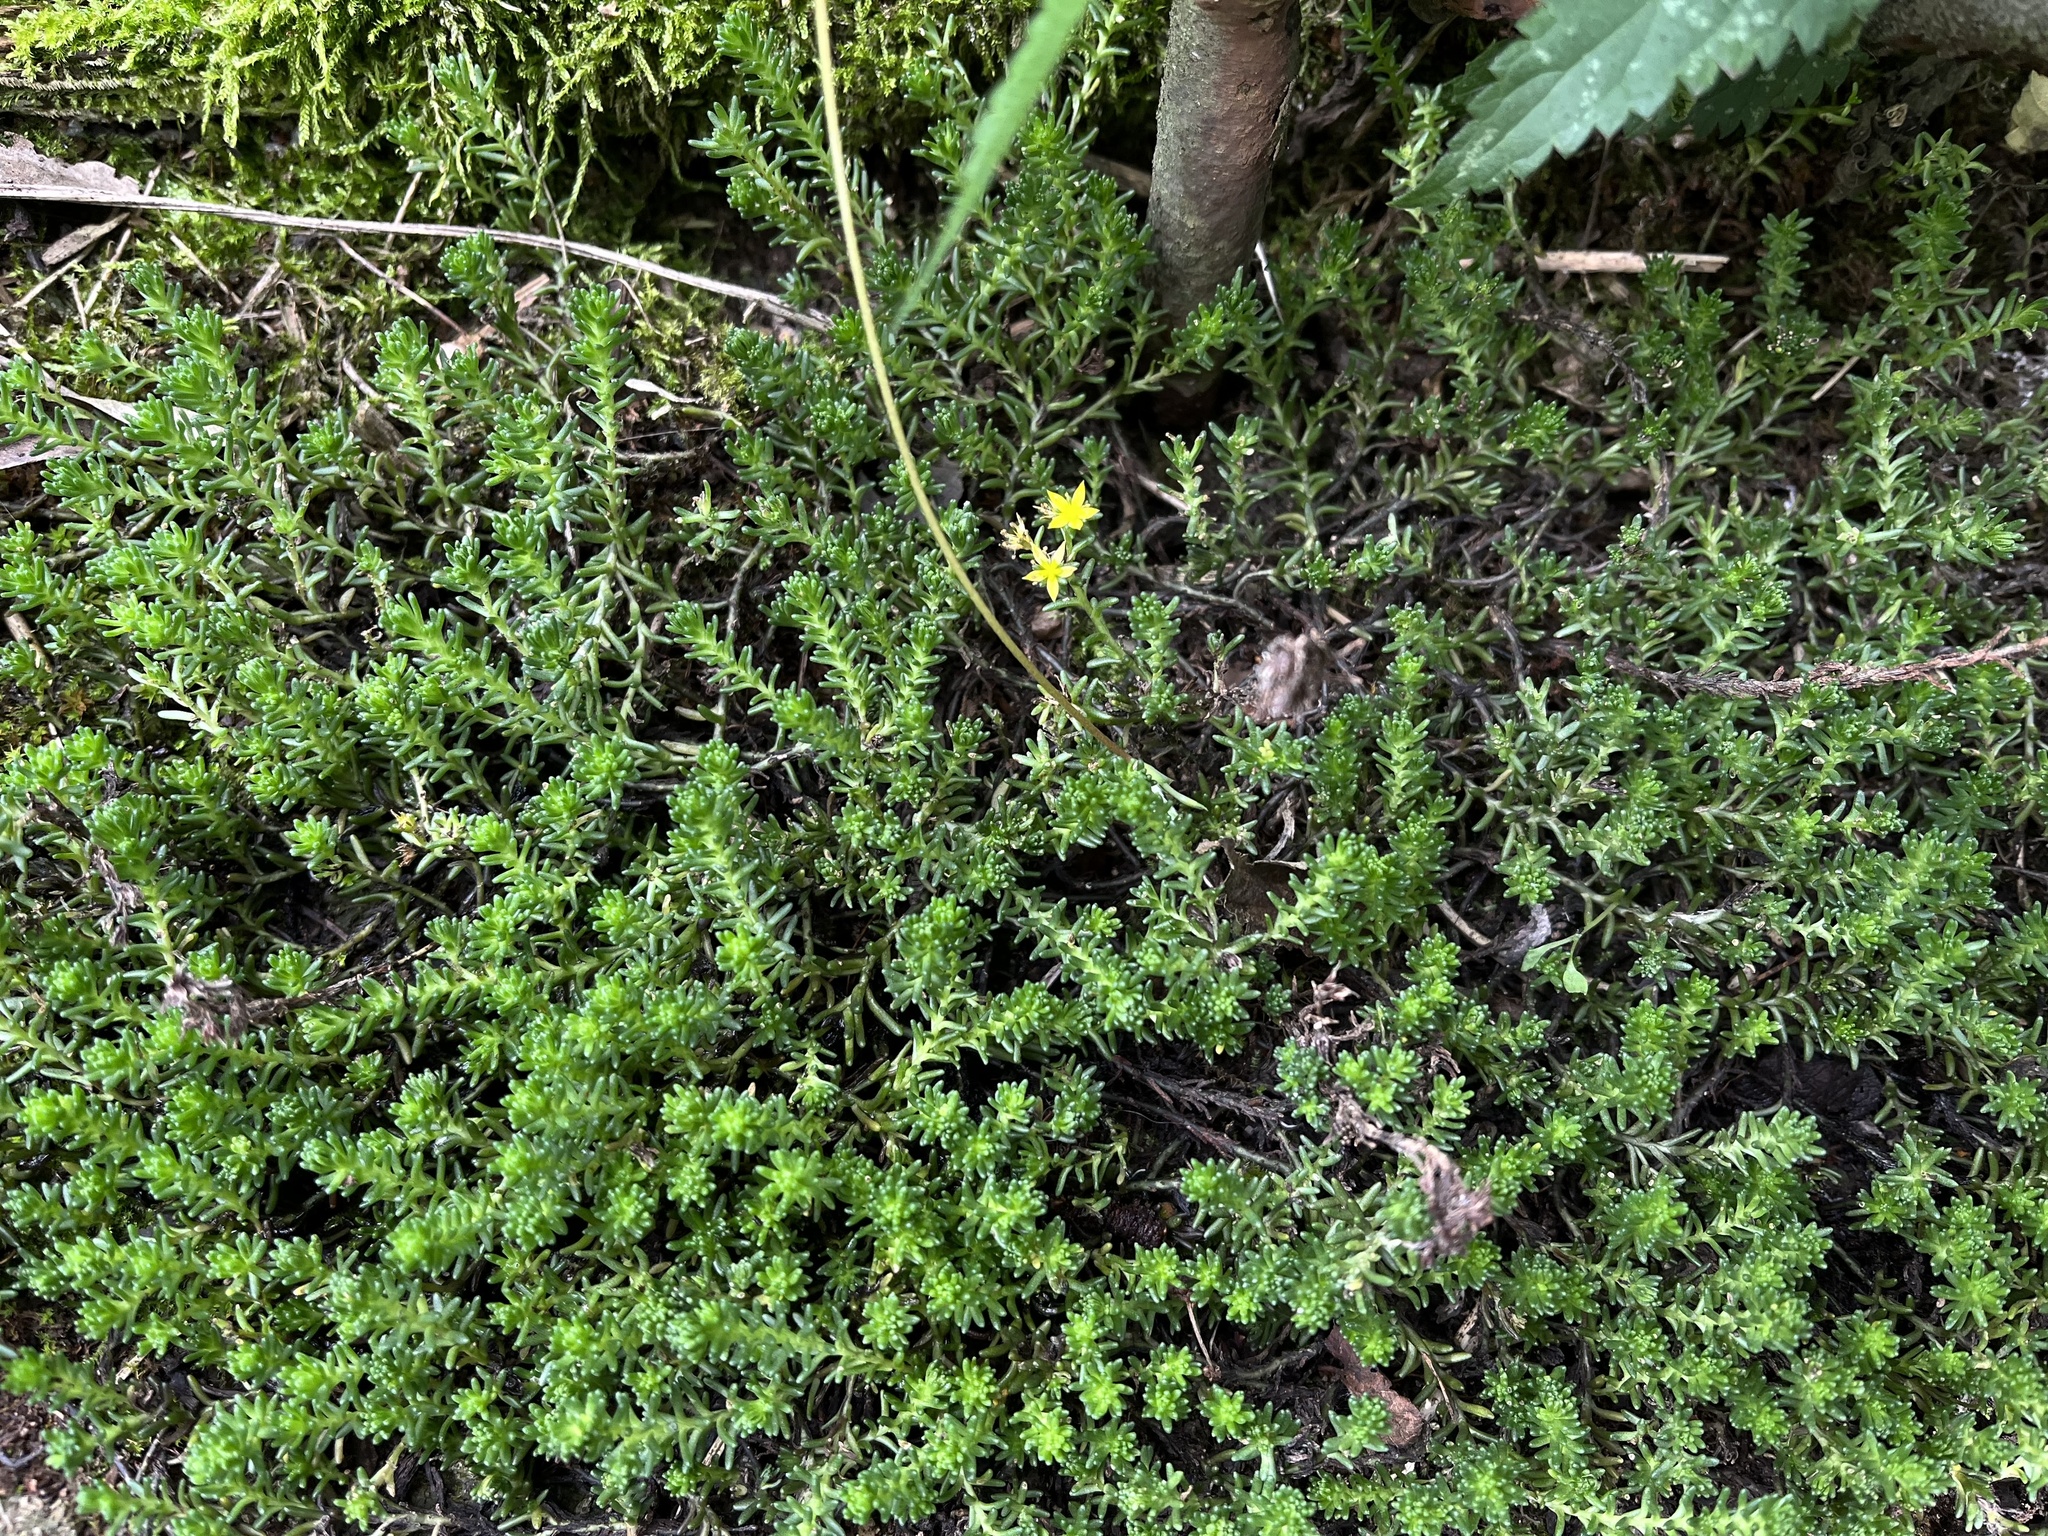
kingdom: Plantae
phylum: Tracheophyta
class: Magnoliopsida
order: Saxifragales
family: Crassulaceae
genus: Sedum
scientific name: Sedum sexangulare
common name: Tasteless stonecrop
